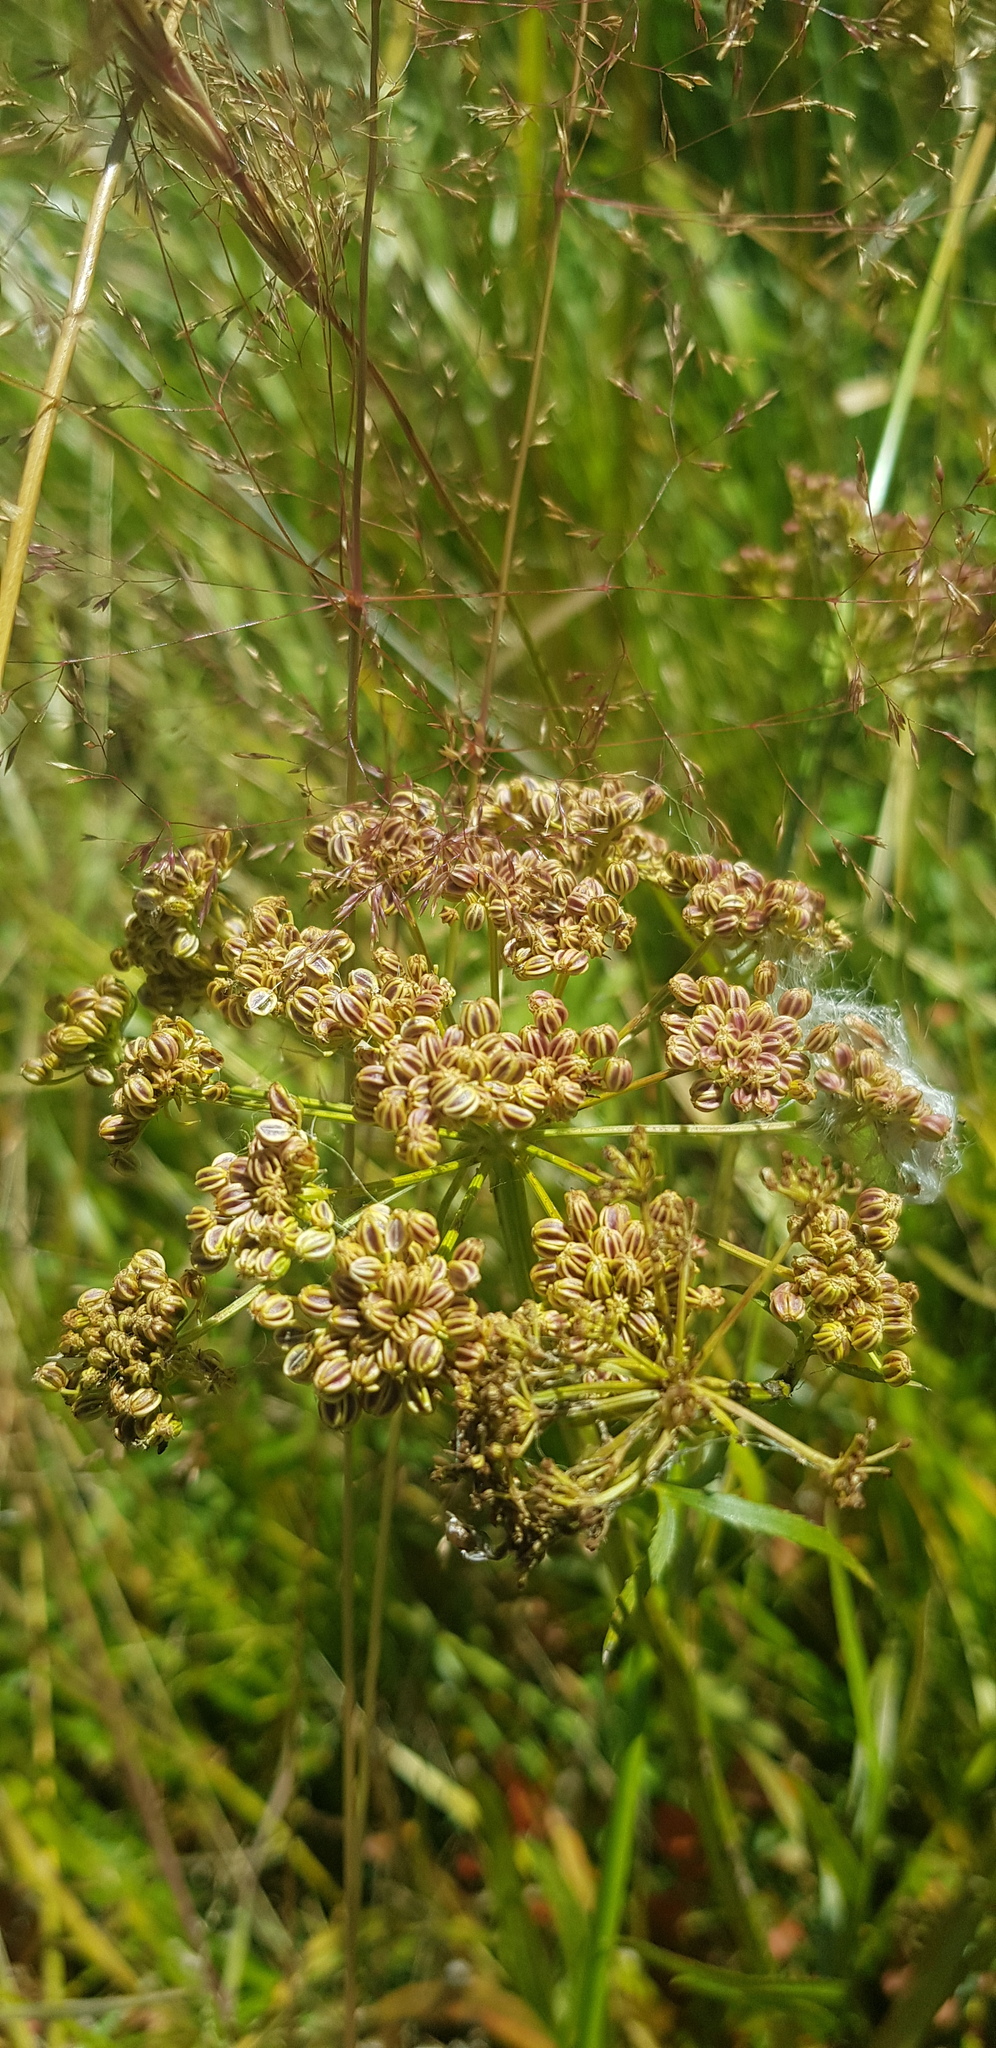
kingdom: Plantae
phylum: Tracheophyta
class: Magnoliopsida
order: Apiales
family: Apiaceae
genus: Sium
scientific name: Sium suave
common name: Hemlock water-parsnip
